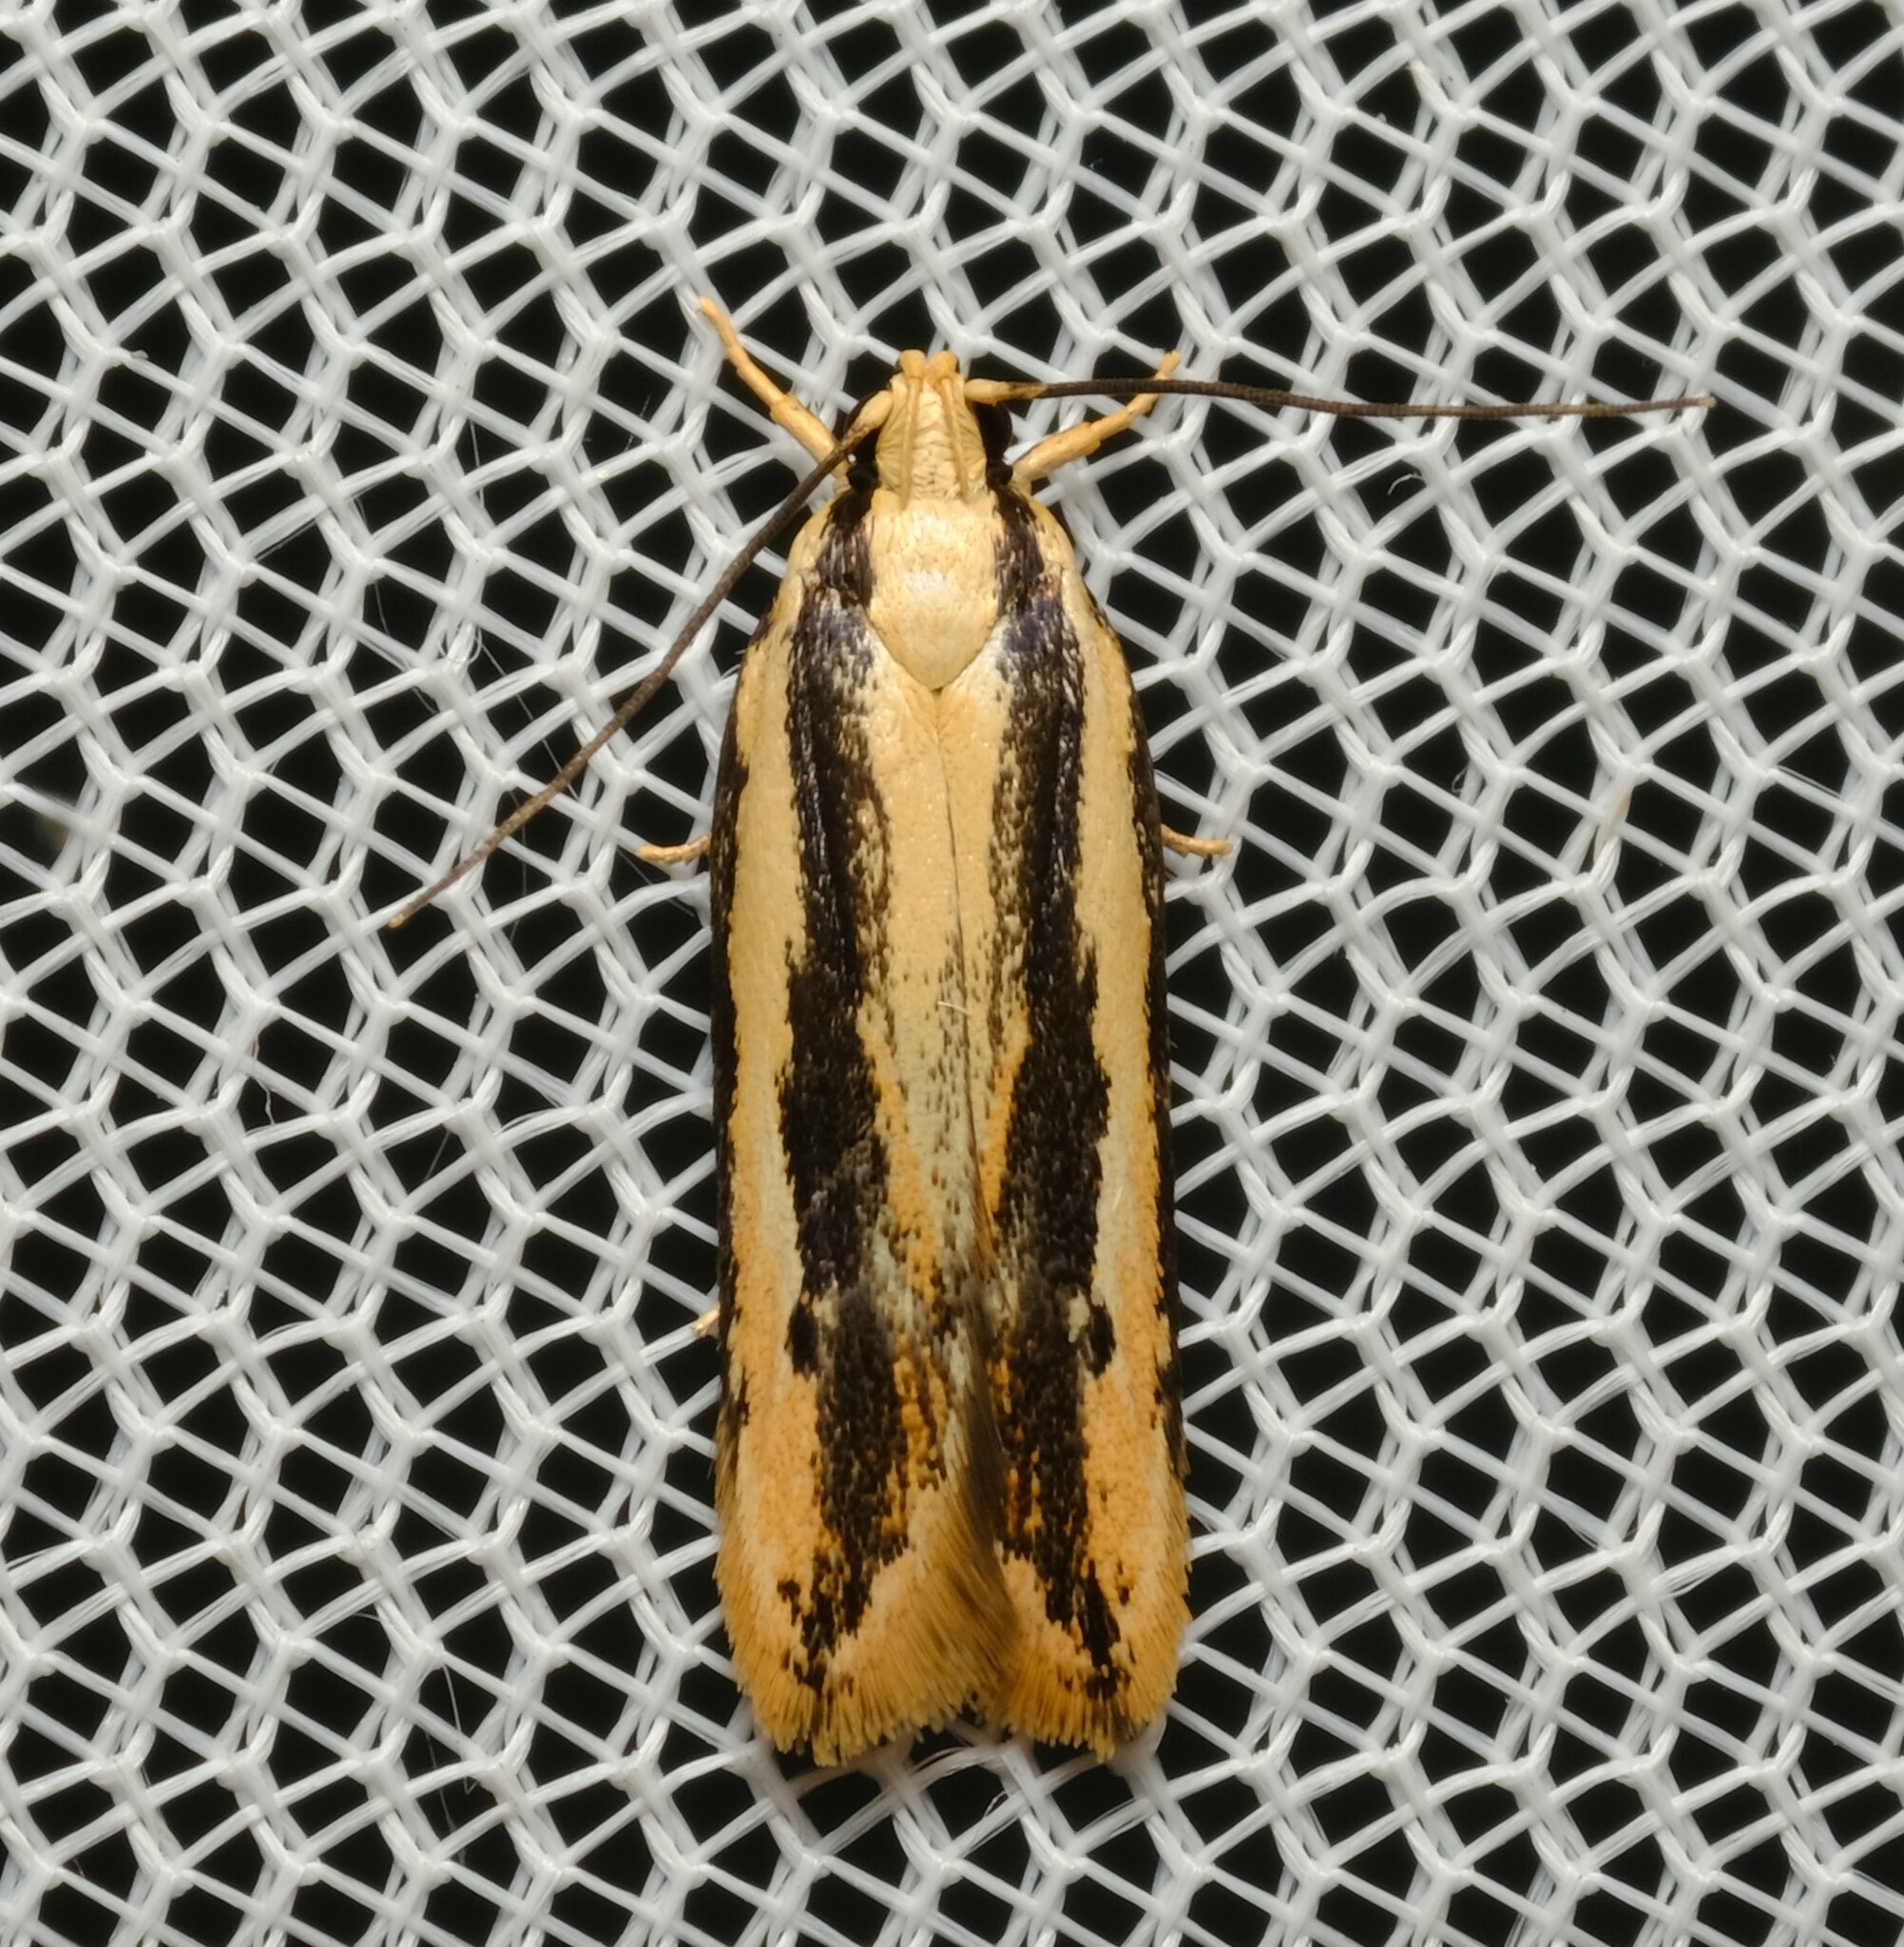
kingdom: Animalia
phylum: Arthropoda
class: Insecta
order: Lepidoptera
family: Gelechiidae
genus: Ardozyga
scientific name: Ardozyga bistrigata
